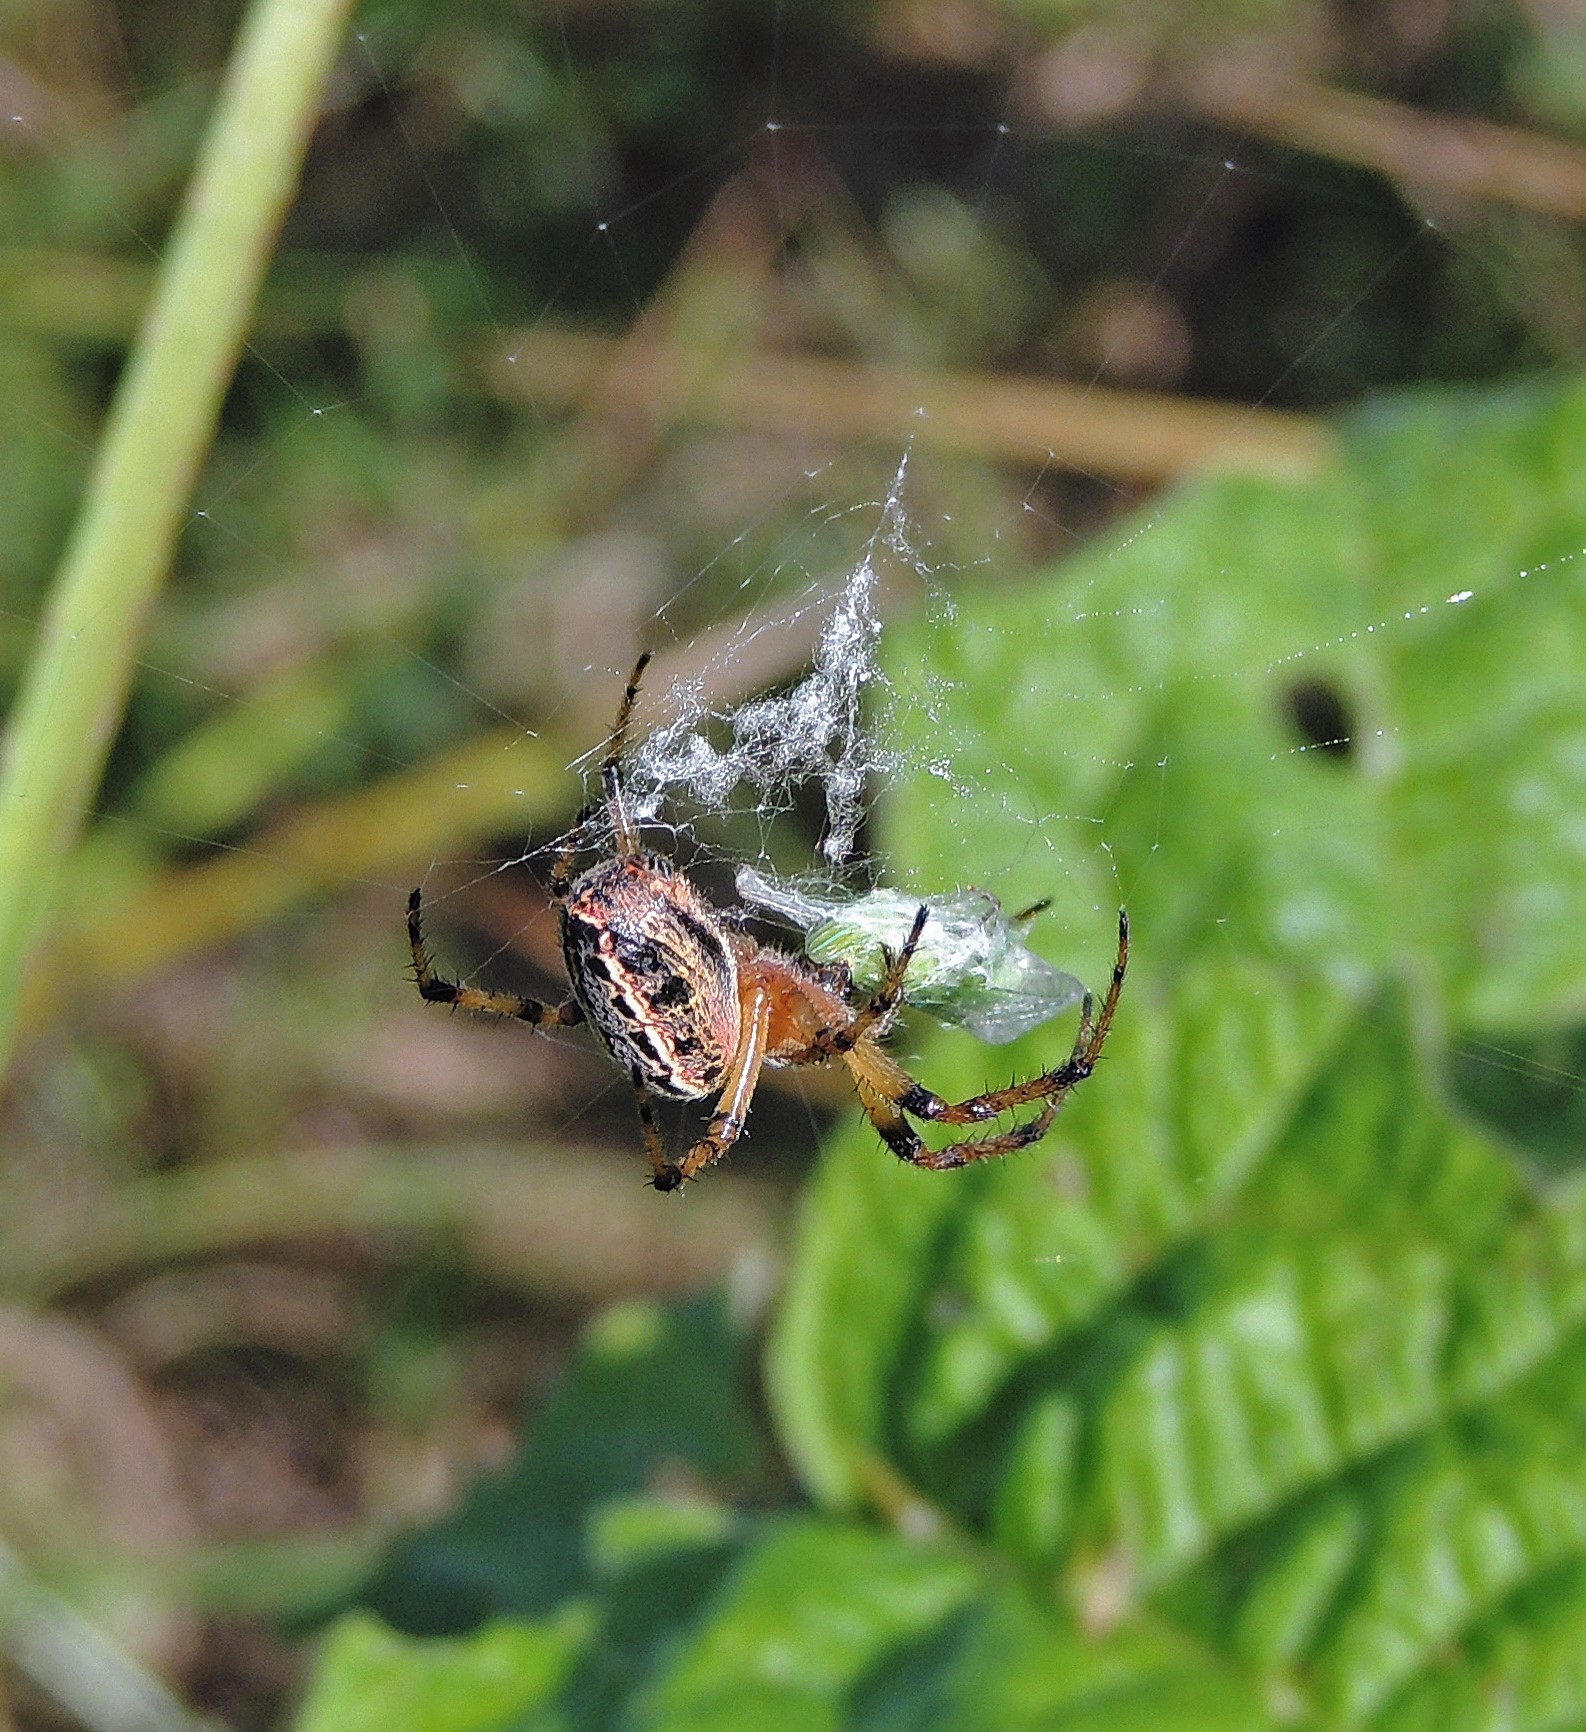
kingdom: Animalia
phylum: Arthropoda
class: Arachnida
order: Araneae
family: Araneidae
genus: Alpaida
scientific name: Alpaida veniliae
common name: Orb weavers
